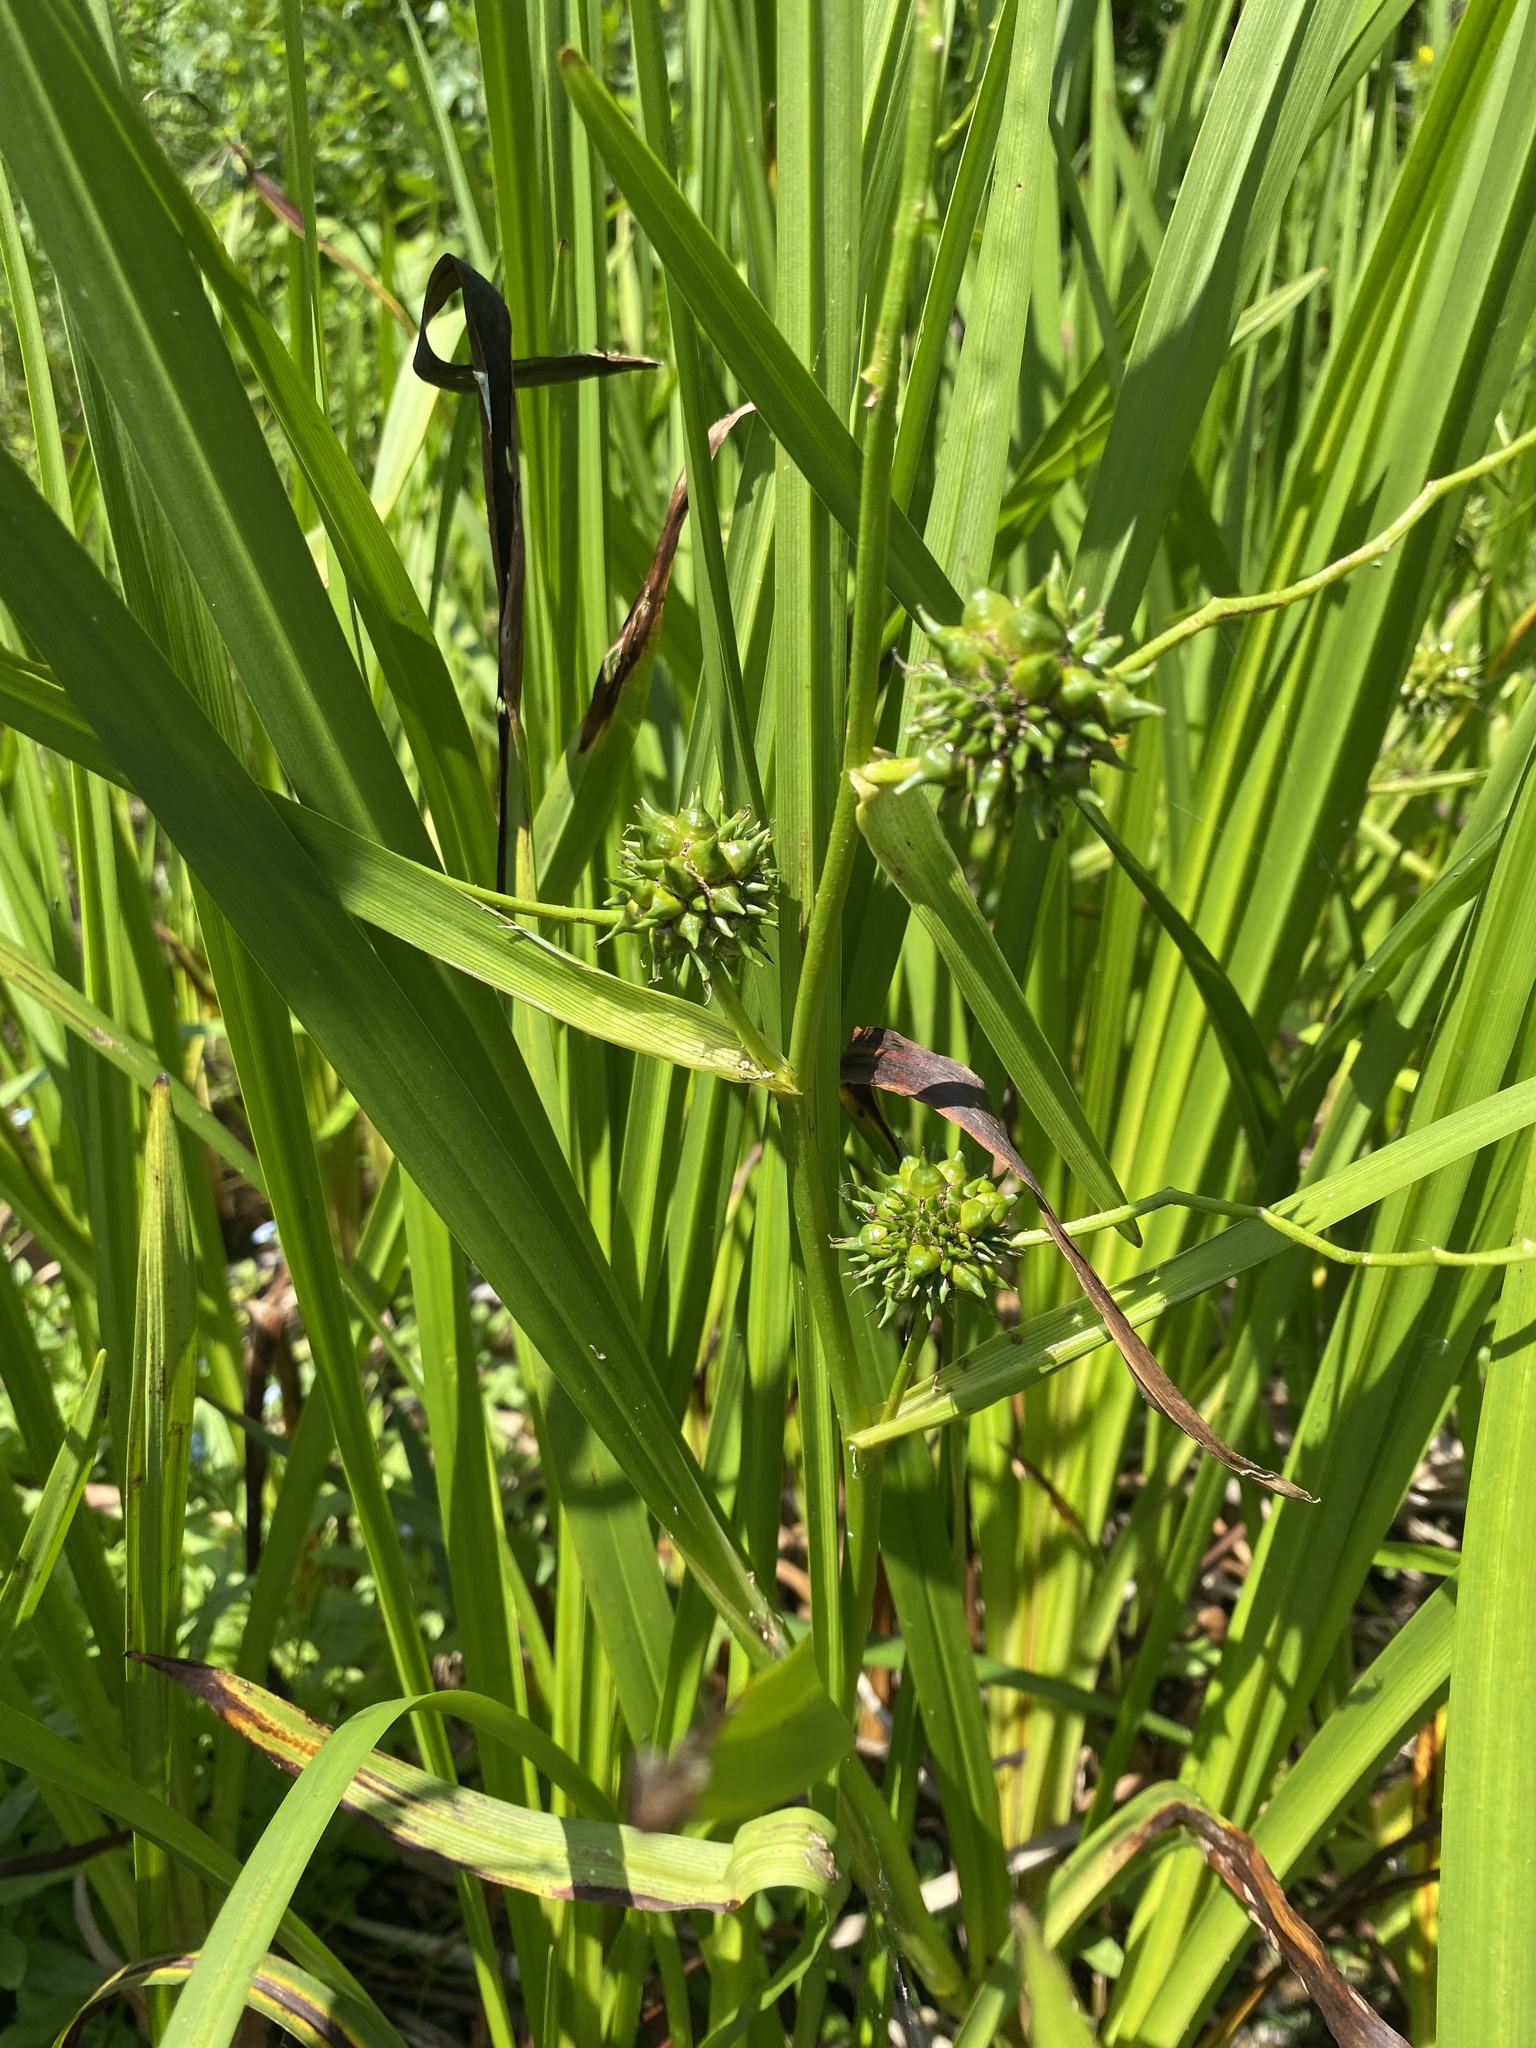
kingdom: Plantae
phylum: Tracheophyta
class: Liliopsida
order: Poales
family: Typhaceae
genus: Sparganium
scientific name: Sparganium eurycarpum
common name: Broad-fruited burreed
